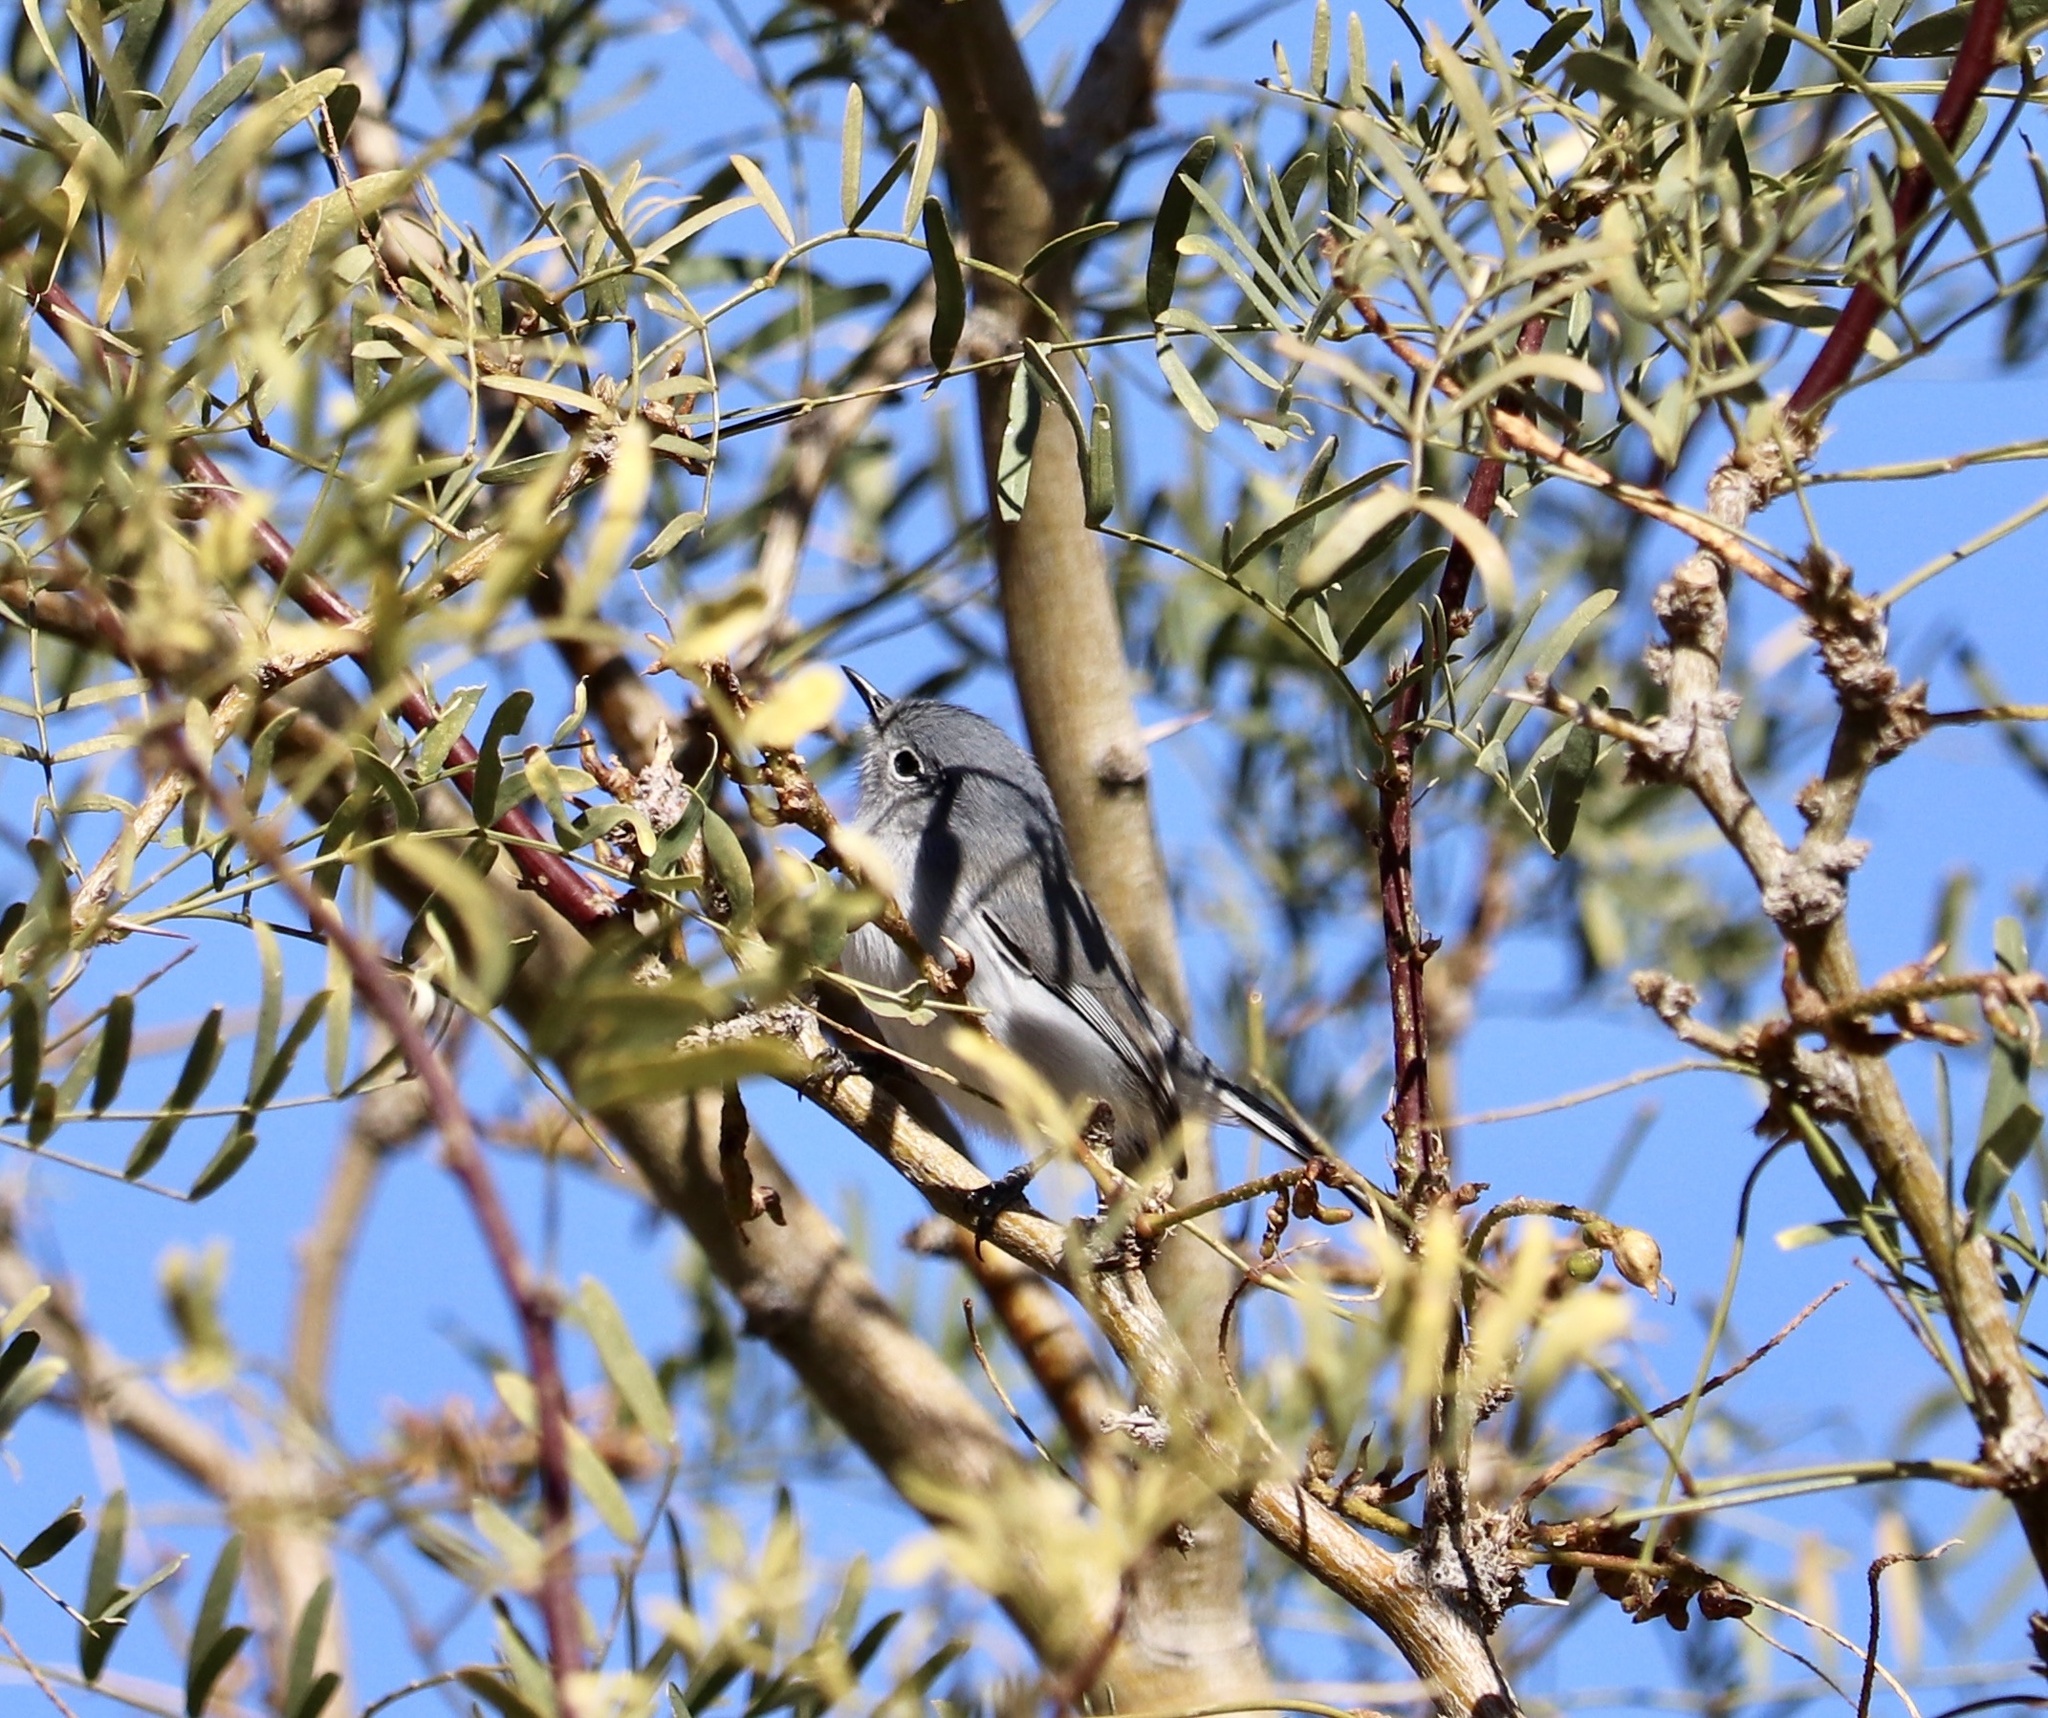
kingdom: Animalia
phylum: Chordata
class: Aves
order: Passeriformes
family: Polioptilidae
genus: Polioptila
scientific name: Polioptila caerulea
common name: Blue-gray gnatcatcher
